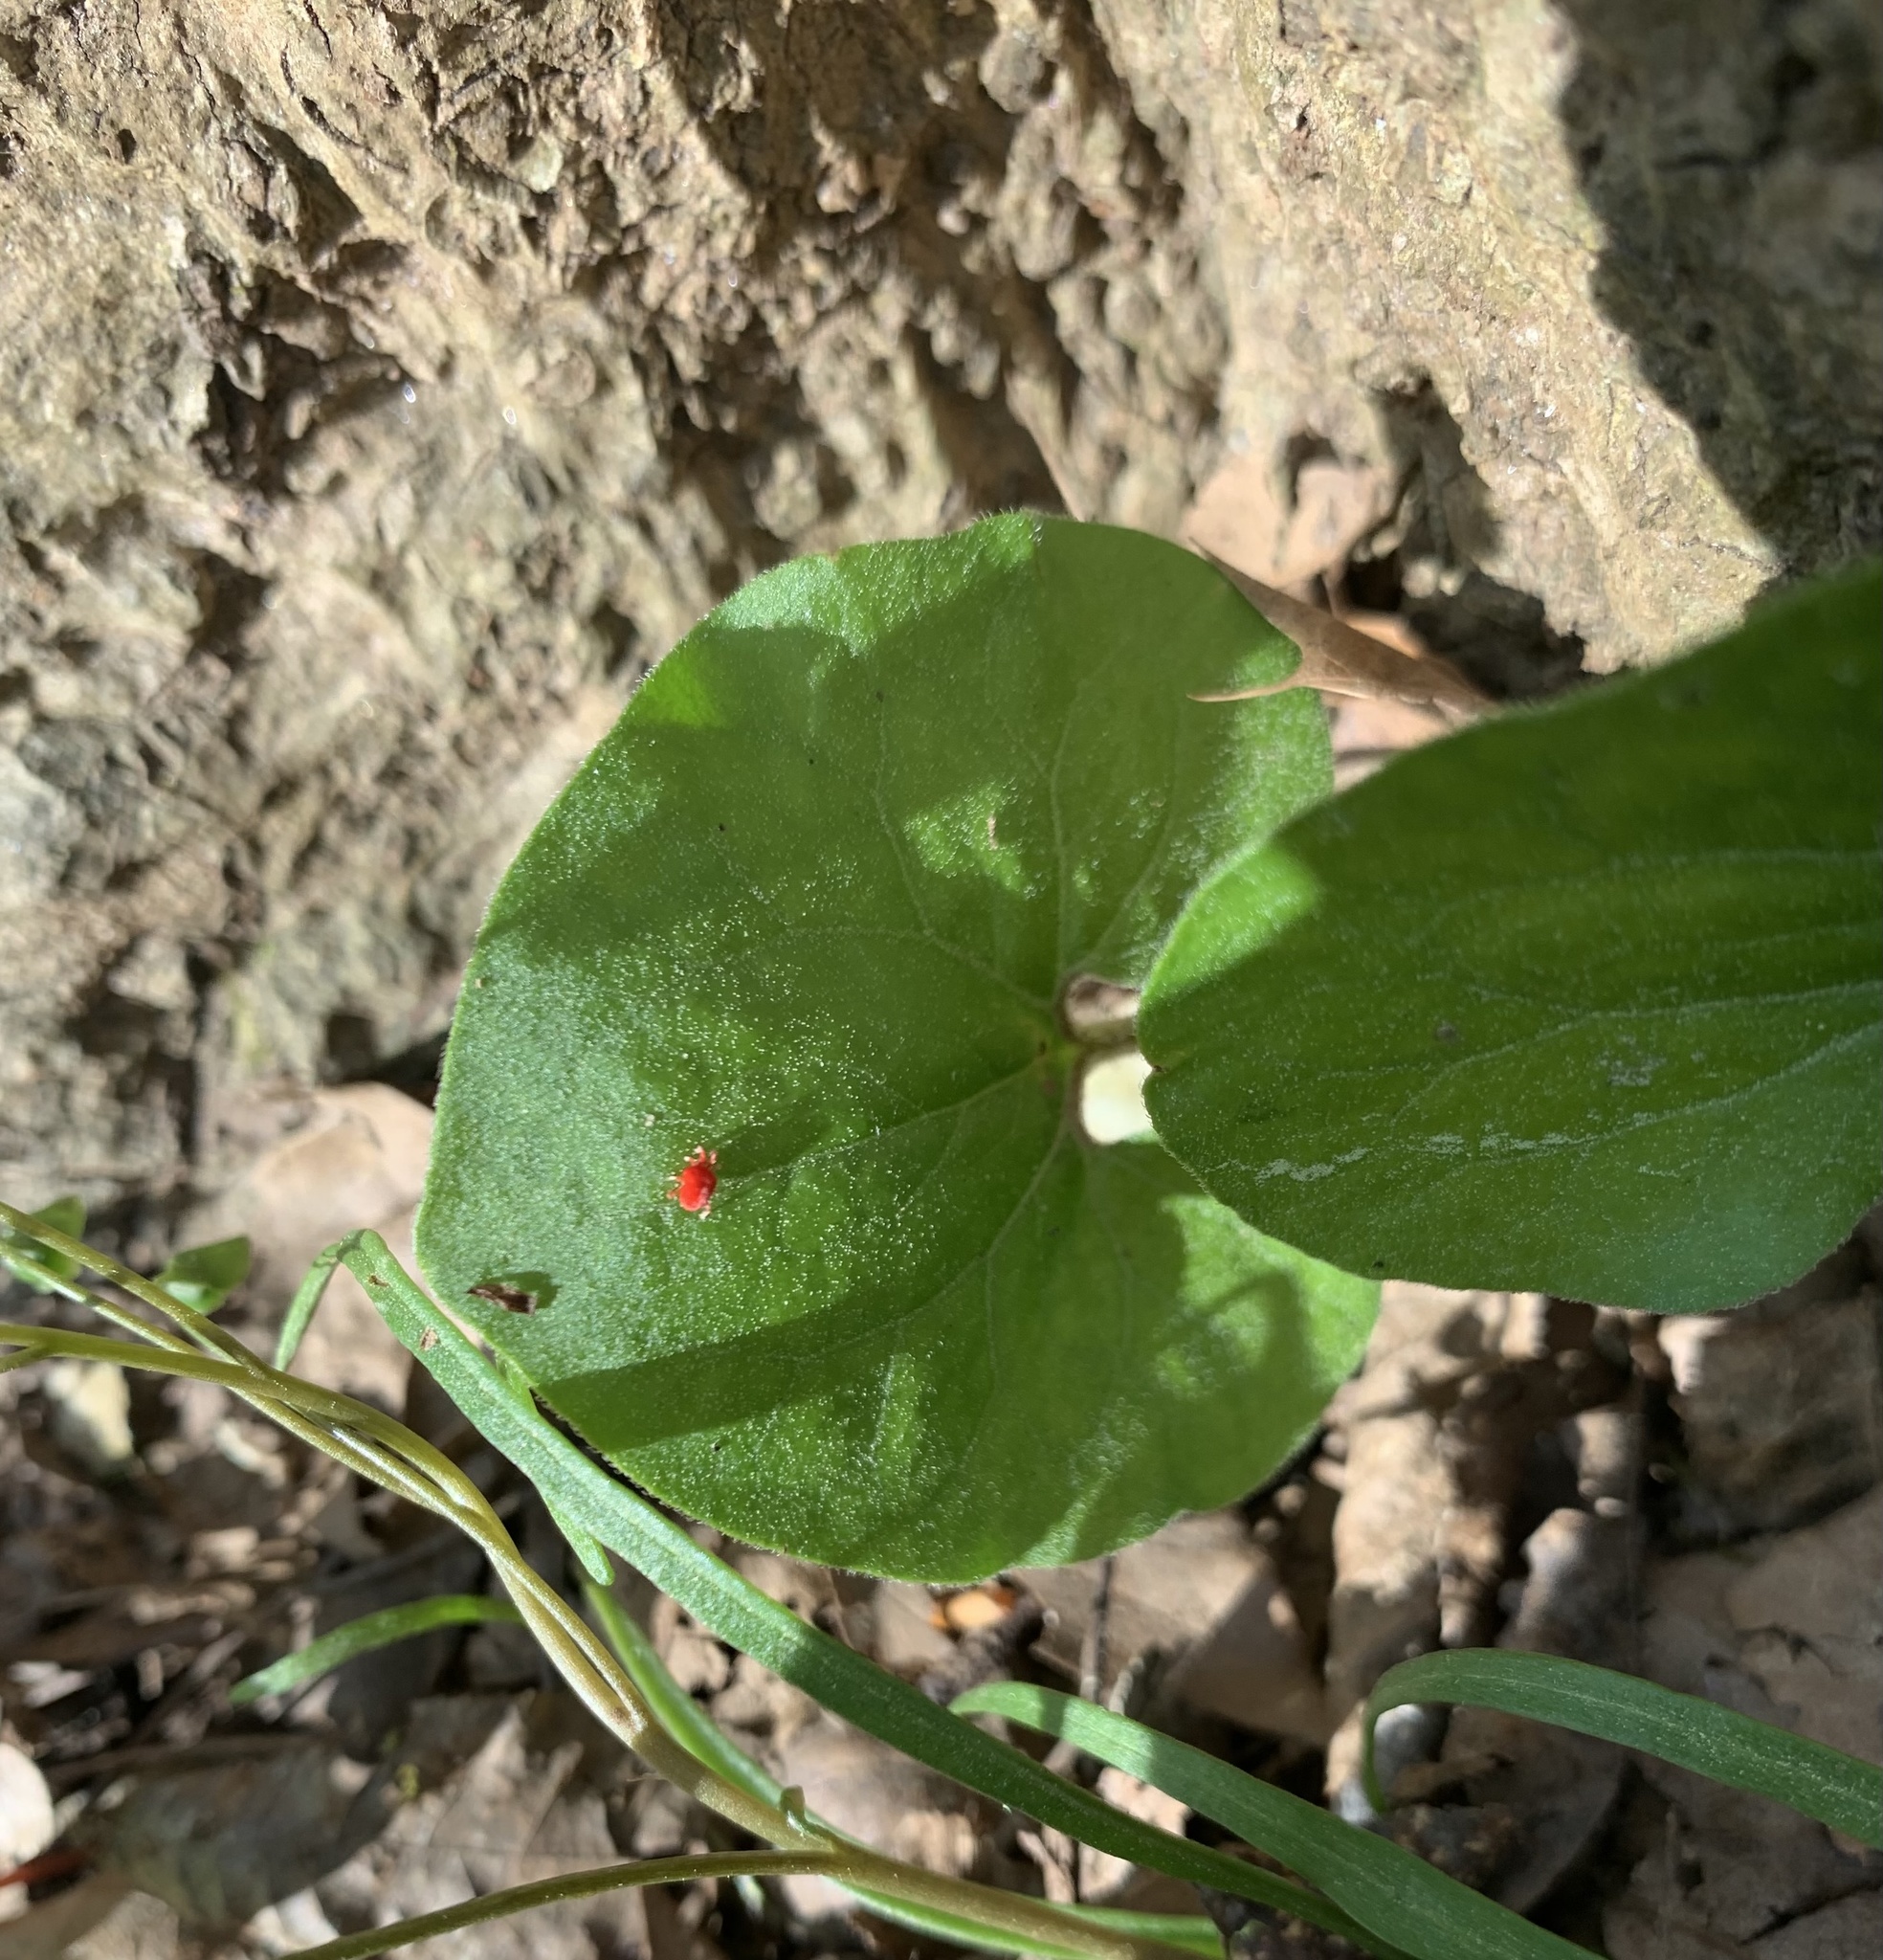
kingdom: Plantae
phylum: Tracheophyta
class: Magnoliopsida
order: Piperales
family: Aristolochiaceae
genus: Asarum
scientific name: Asarum canadense
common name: Wild ginger
